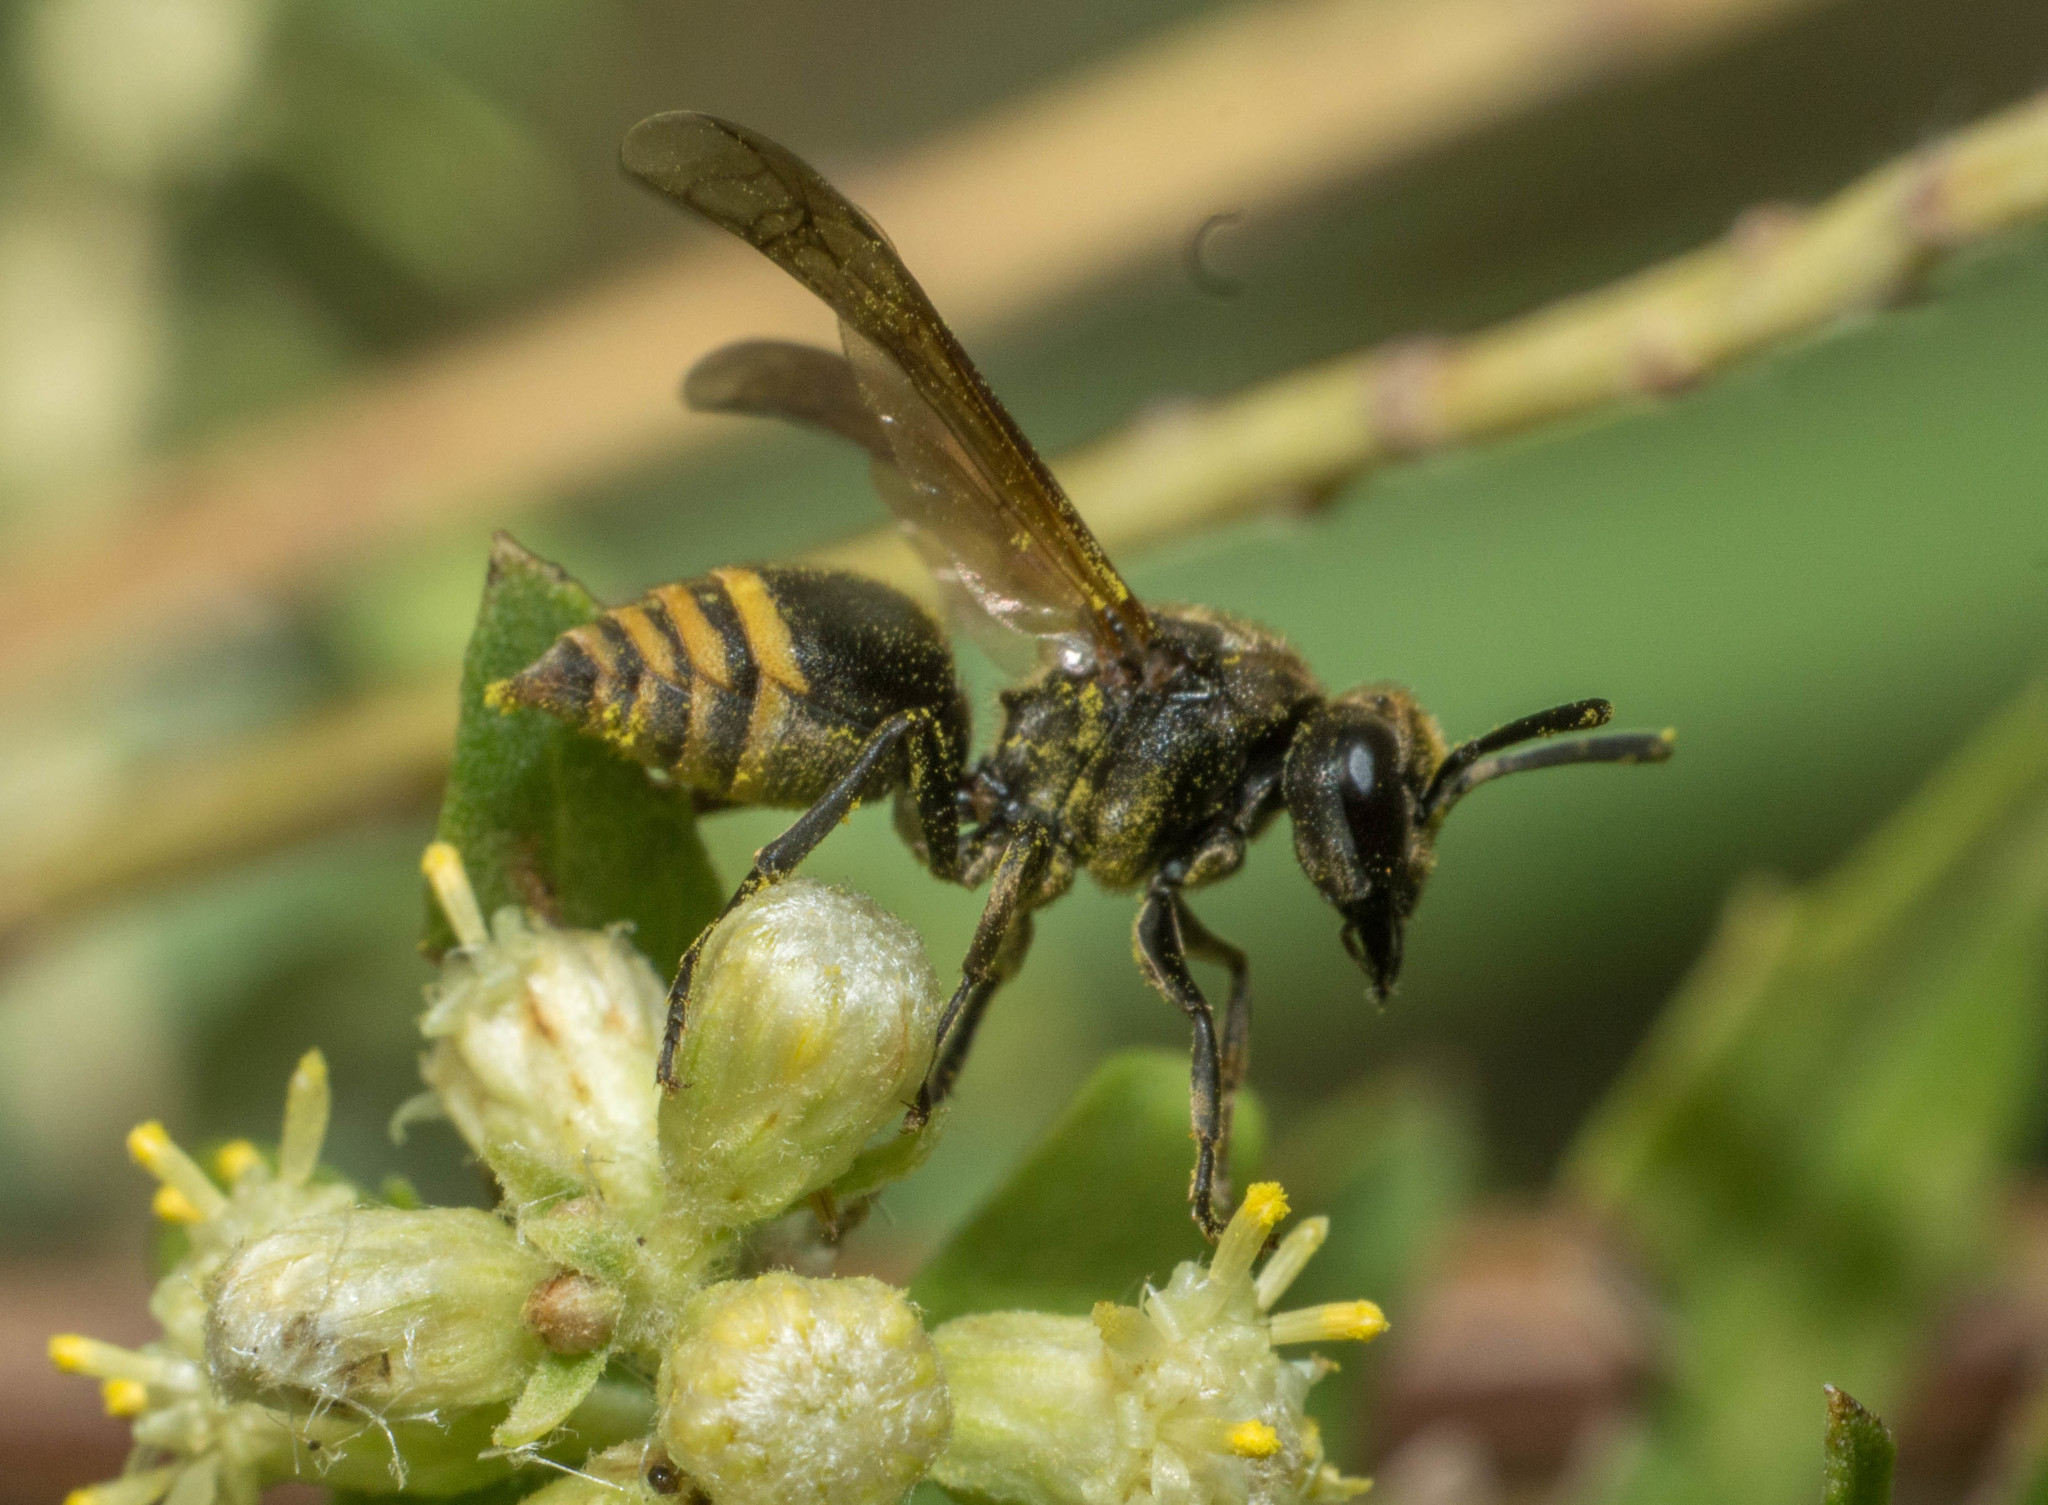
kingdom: Animalia
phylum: Arthropoda
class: Insecta
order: Hymenoptera
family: Vespidae
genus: Brachygastra
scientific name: Brachygastra lecheguana
